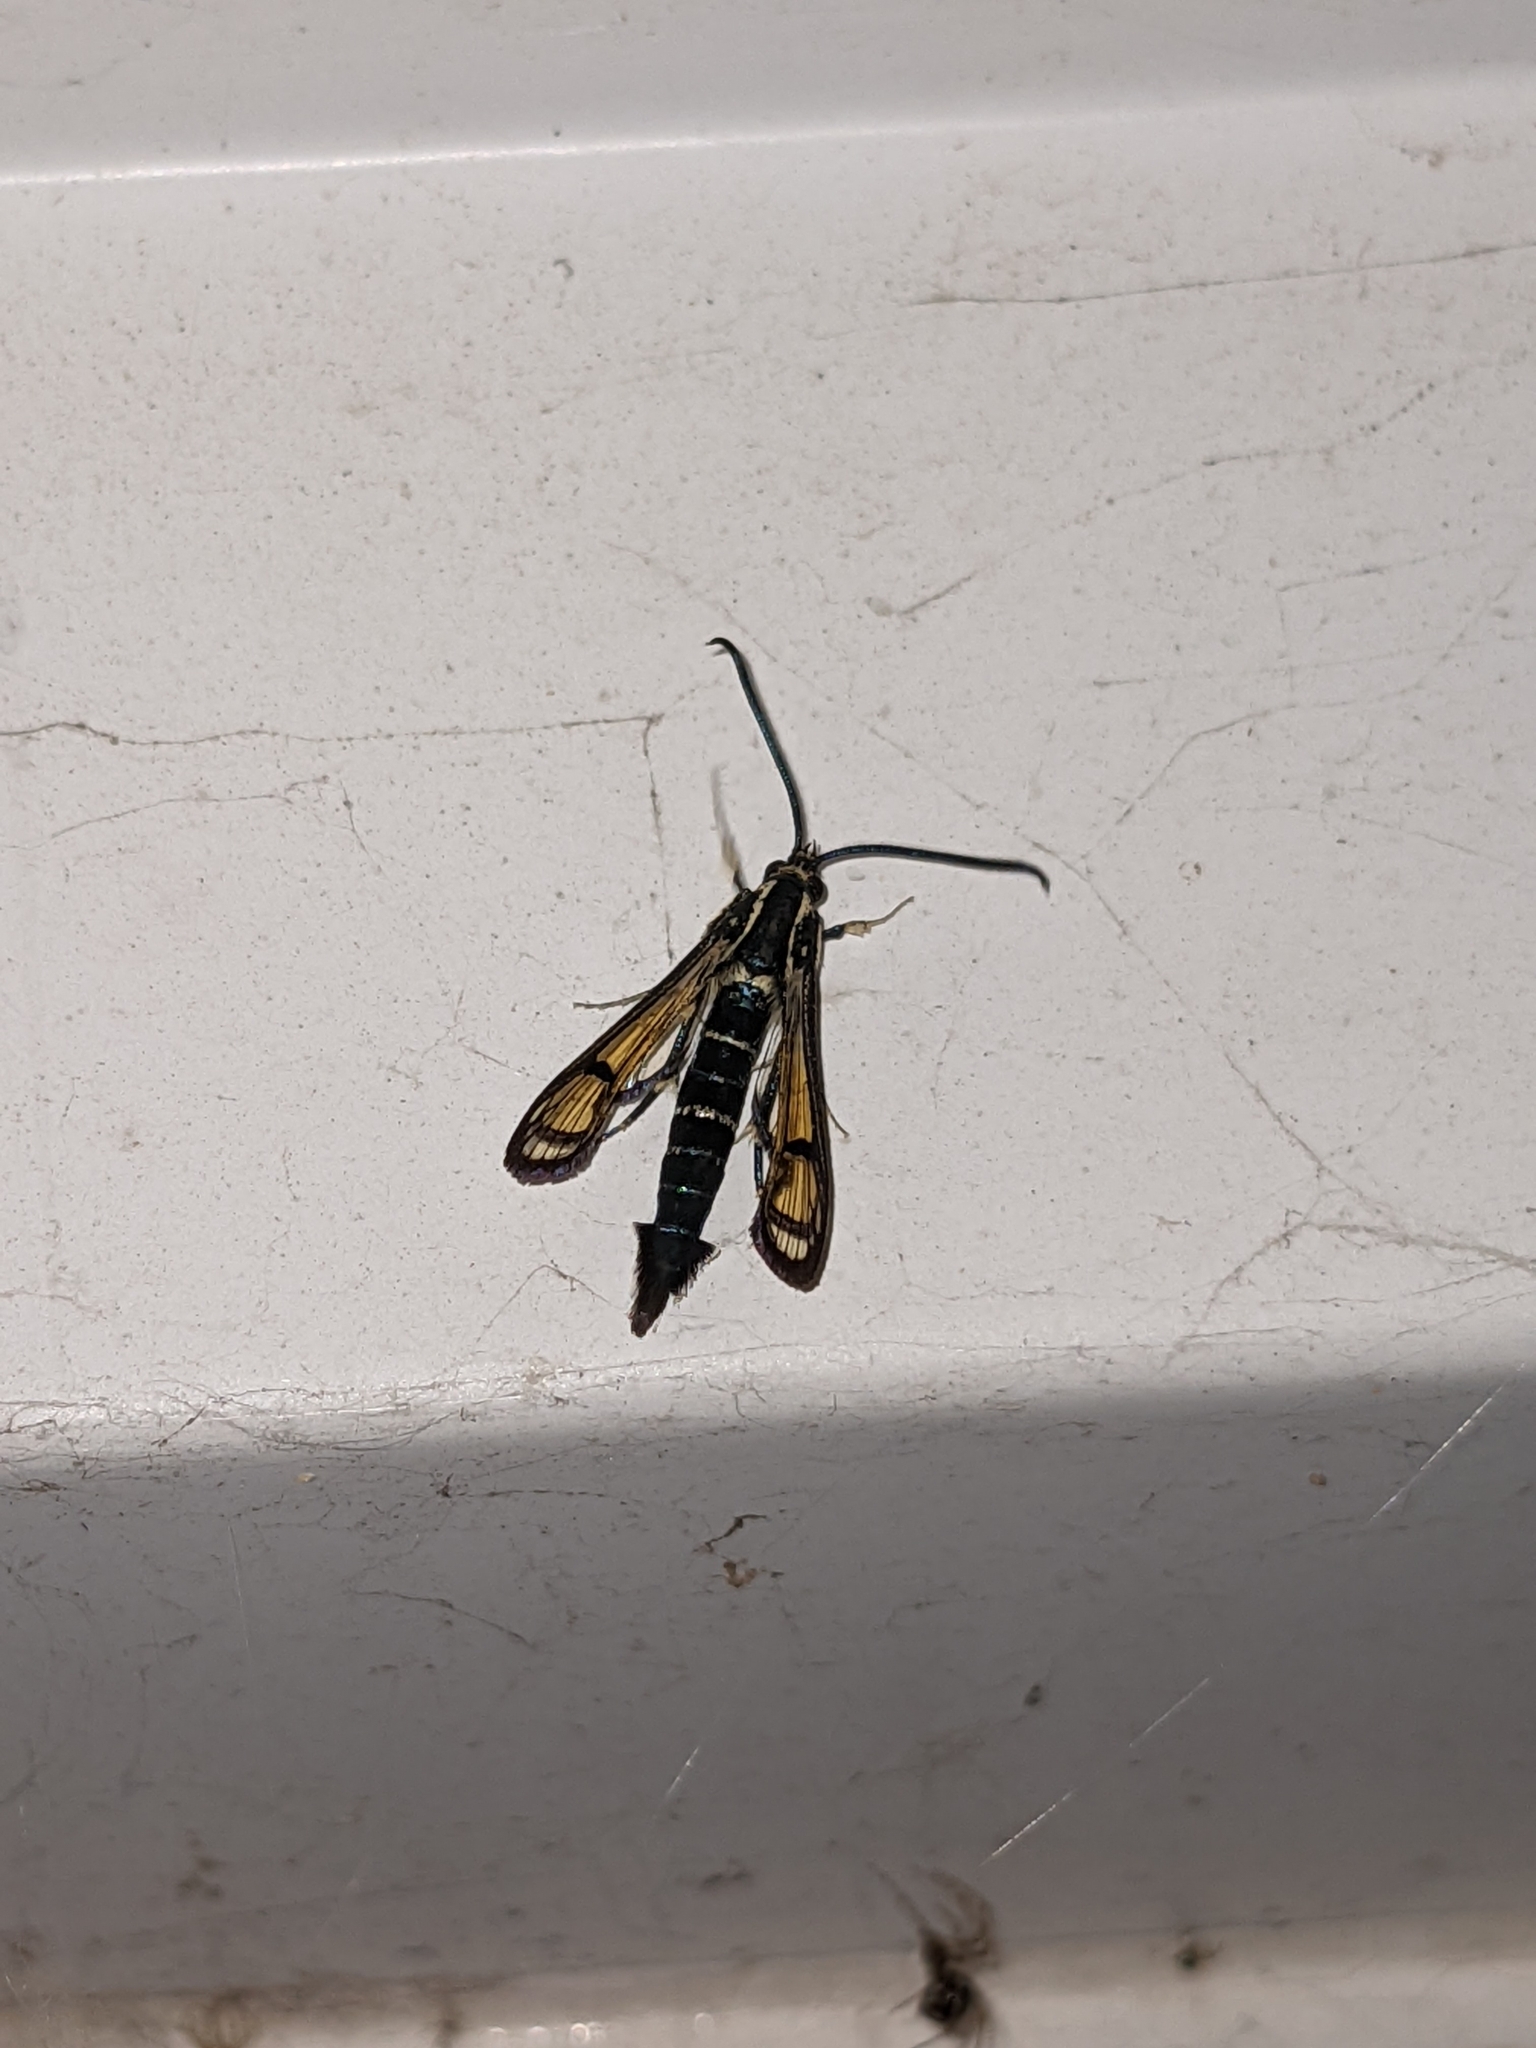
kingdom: Animalia
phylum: Arthropoda
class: Insecta
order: Lepidoptera
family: Sesiidae
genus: Synanthedon
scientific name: Synanthedon exitiosa
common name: Peachtree borer moth
